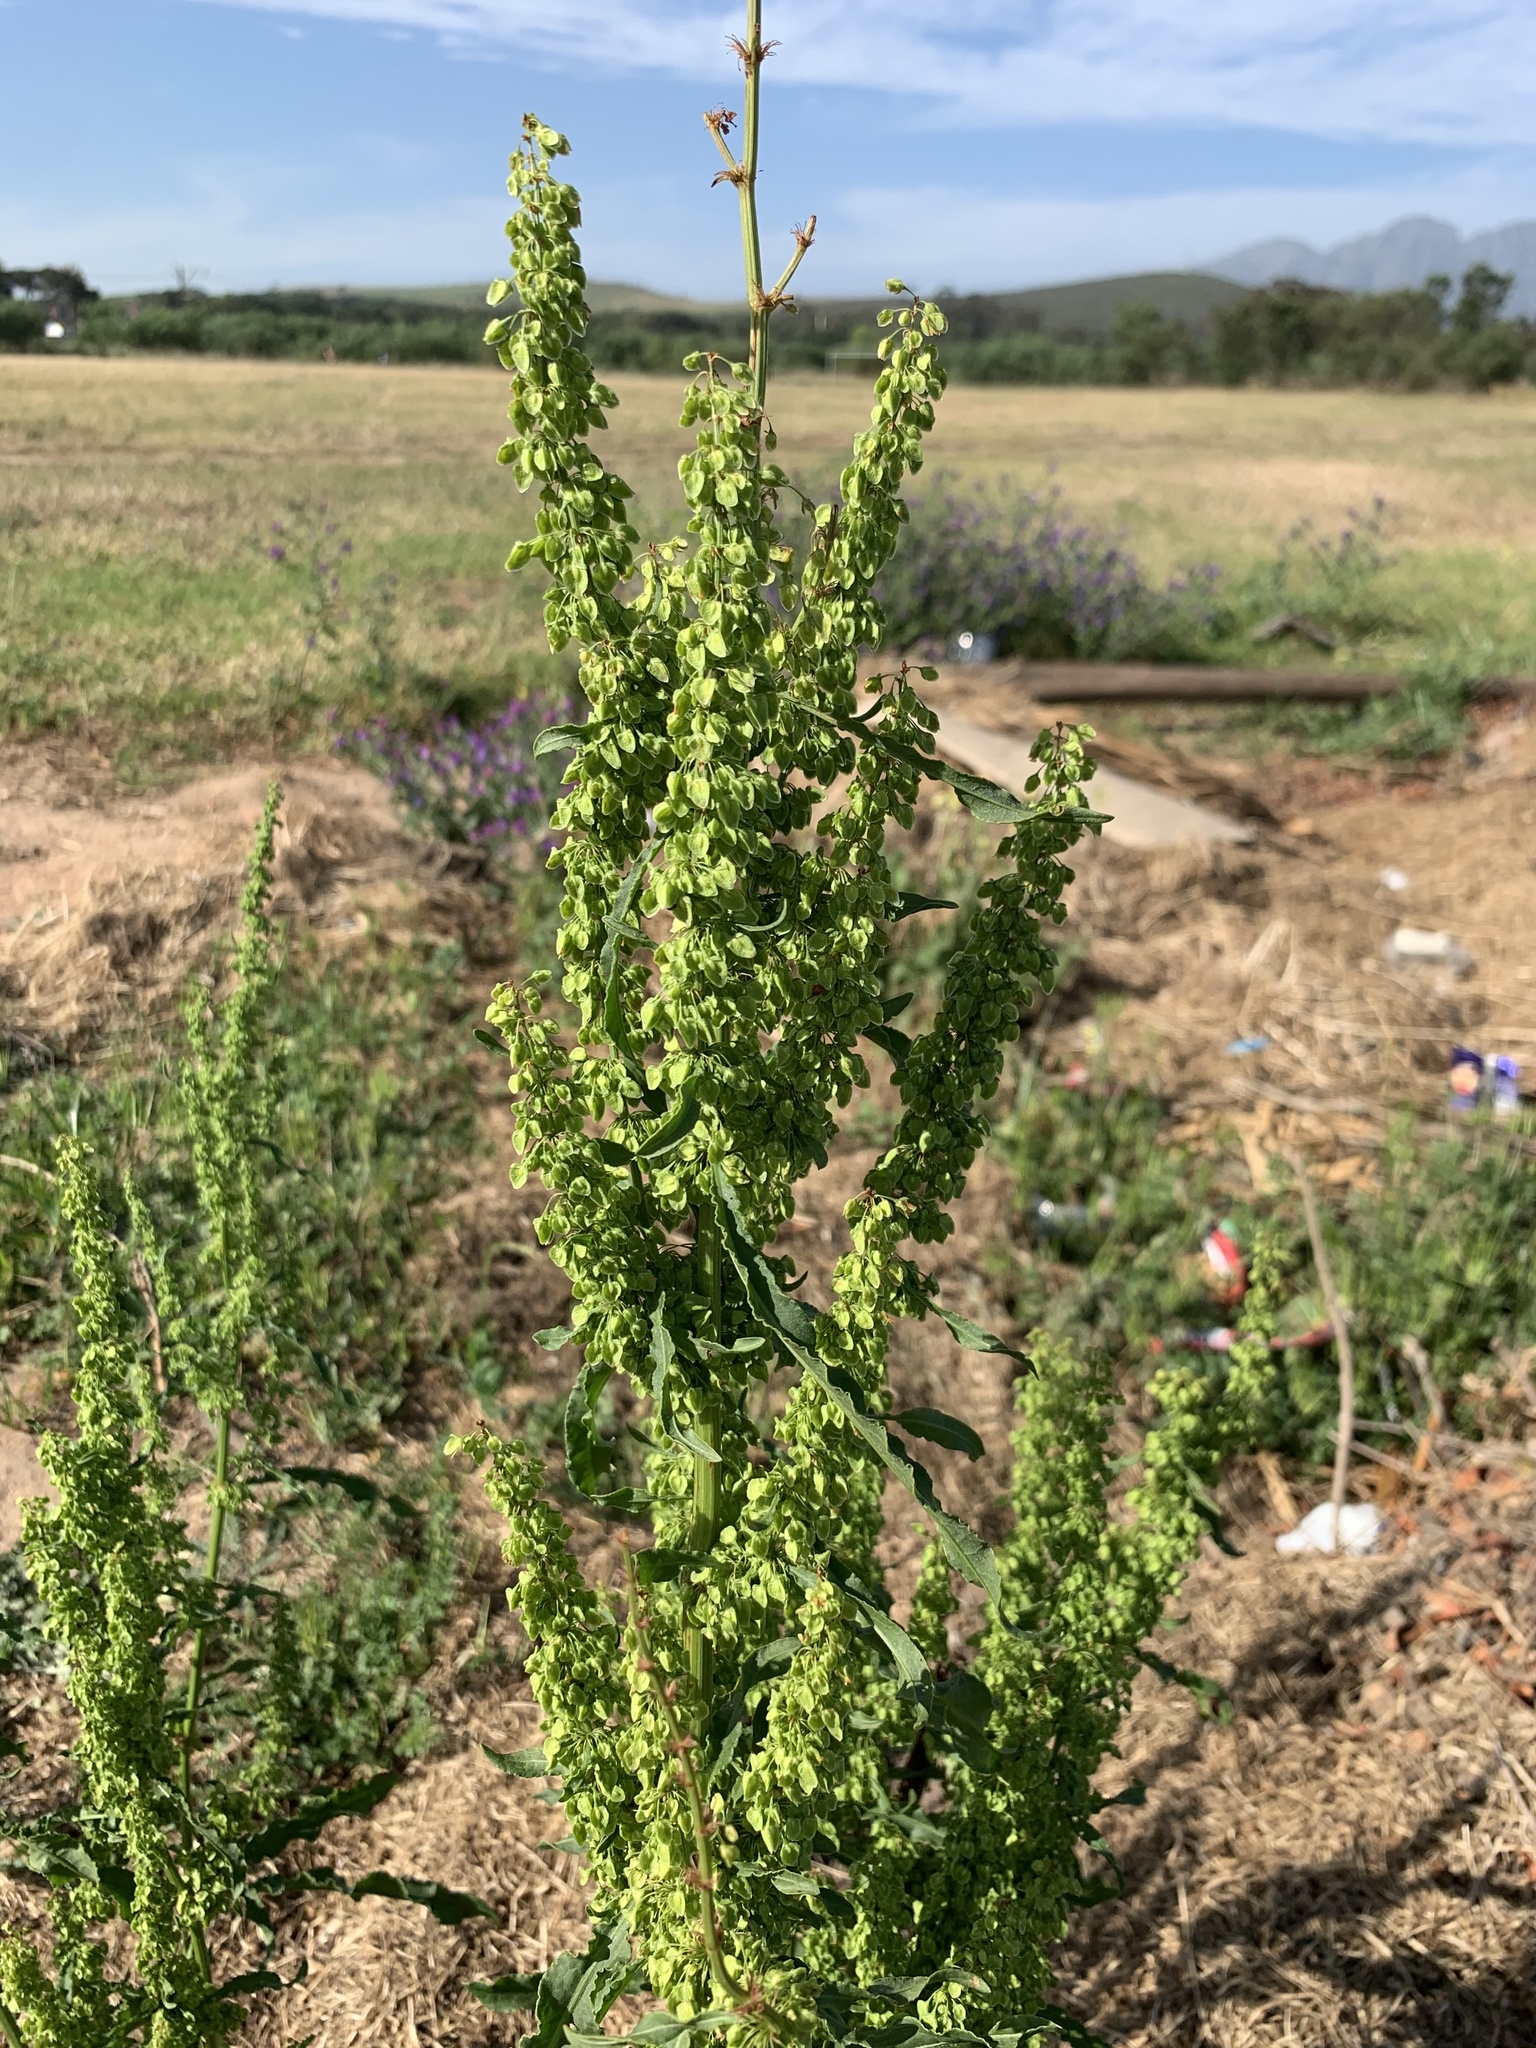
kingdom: Plantae
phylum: Tracheophyta
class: Magnoliopsida
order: Caryophyllales
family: Polygonaceae
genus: Rumex
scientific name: Rumex crispus
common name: Curled dock
